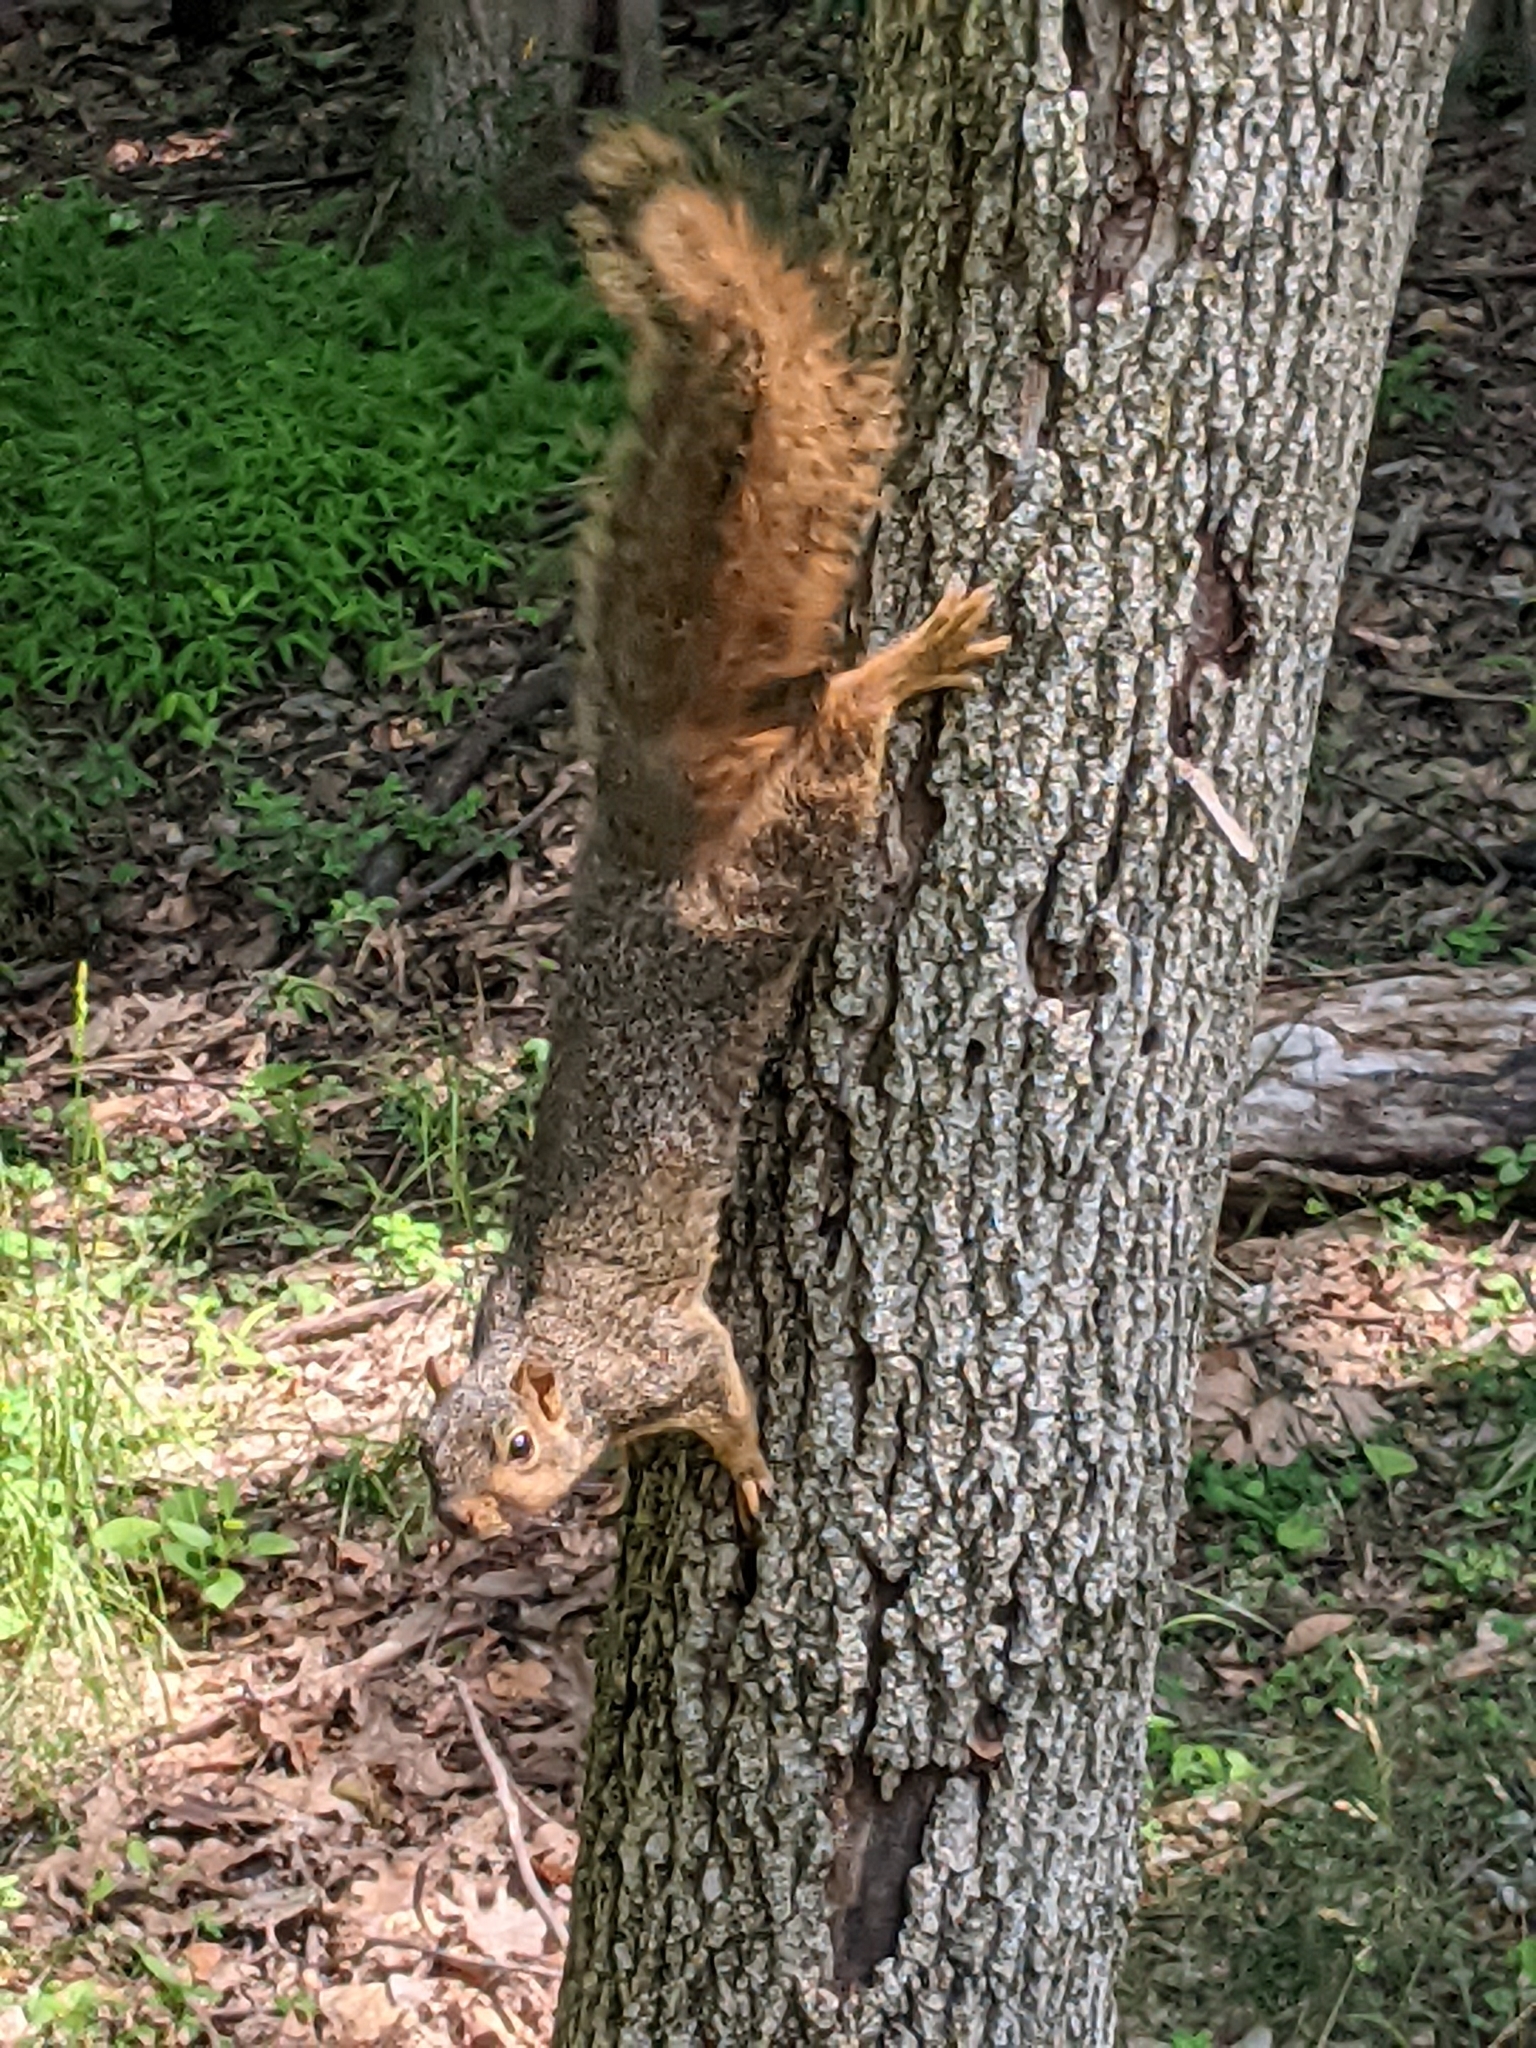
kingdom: Animalia
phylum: Chordata
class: Mammalia
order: Rodentia
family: Sciuridae
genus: Sciurus
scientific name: Sciurus niger
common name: Fox squirrel
